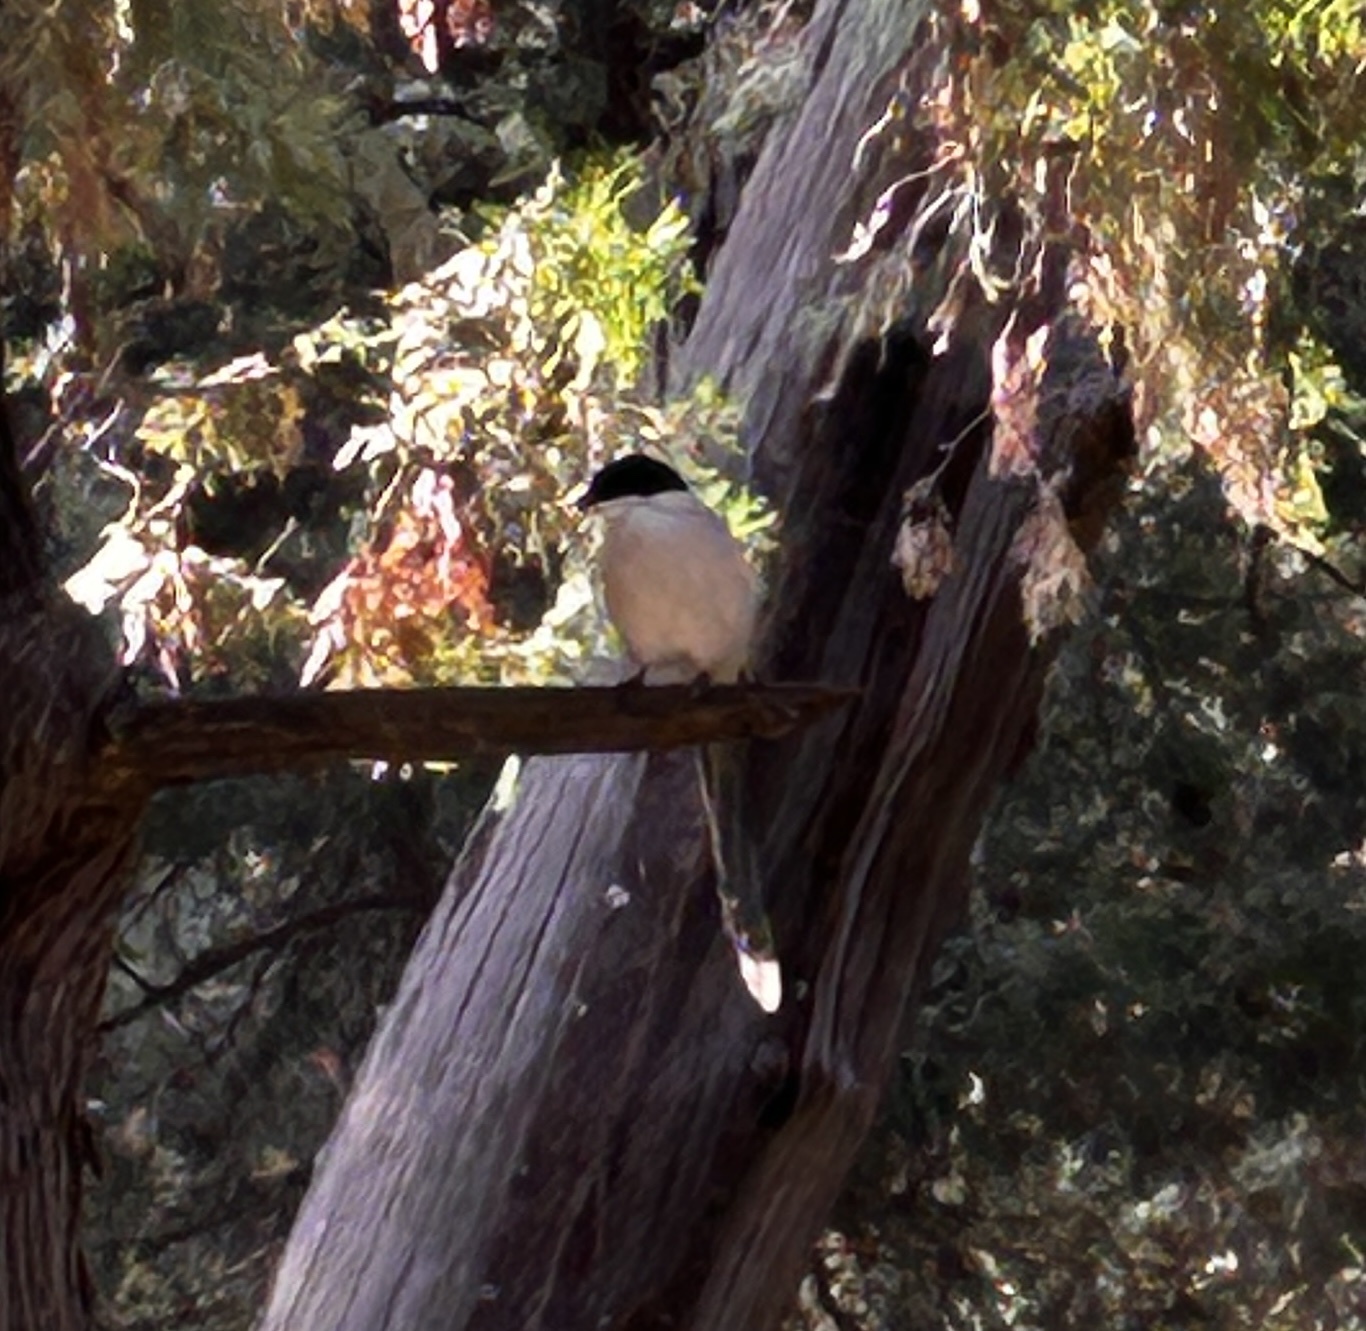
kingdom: Animalia
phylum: Chordata
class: Aves
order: Passeriformes
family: Corvidae
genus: Cyanopica
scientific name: Cyanopica cyanus
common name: Azure-winged magpie
